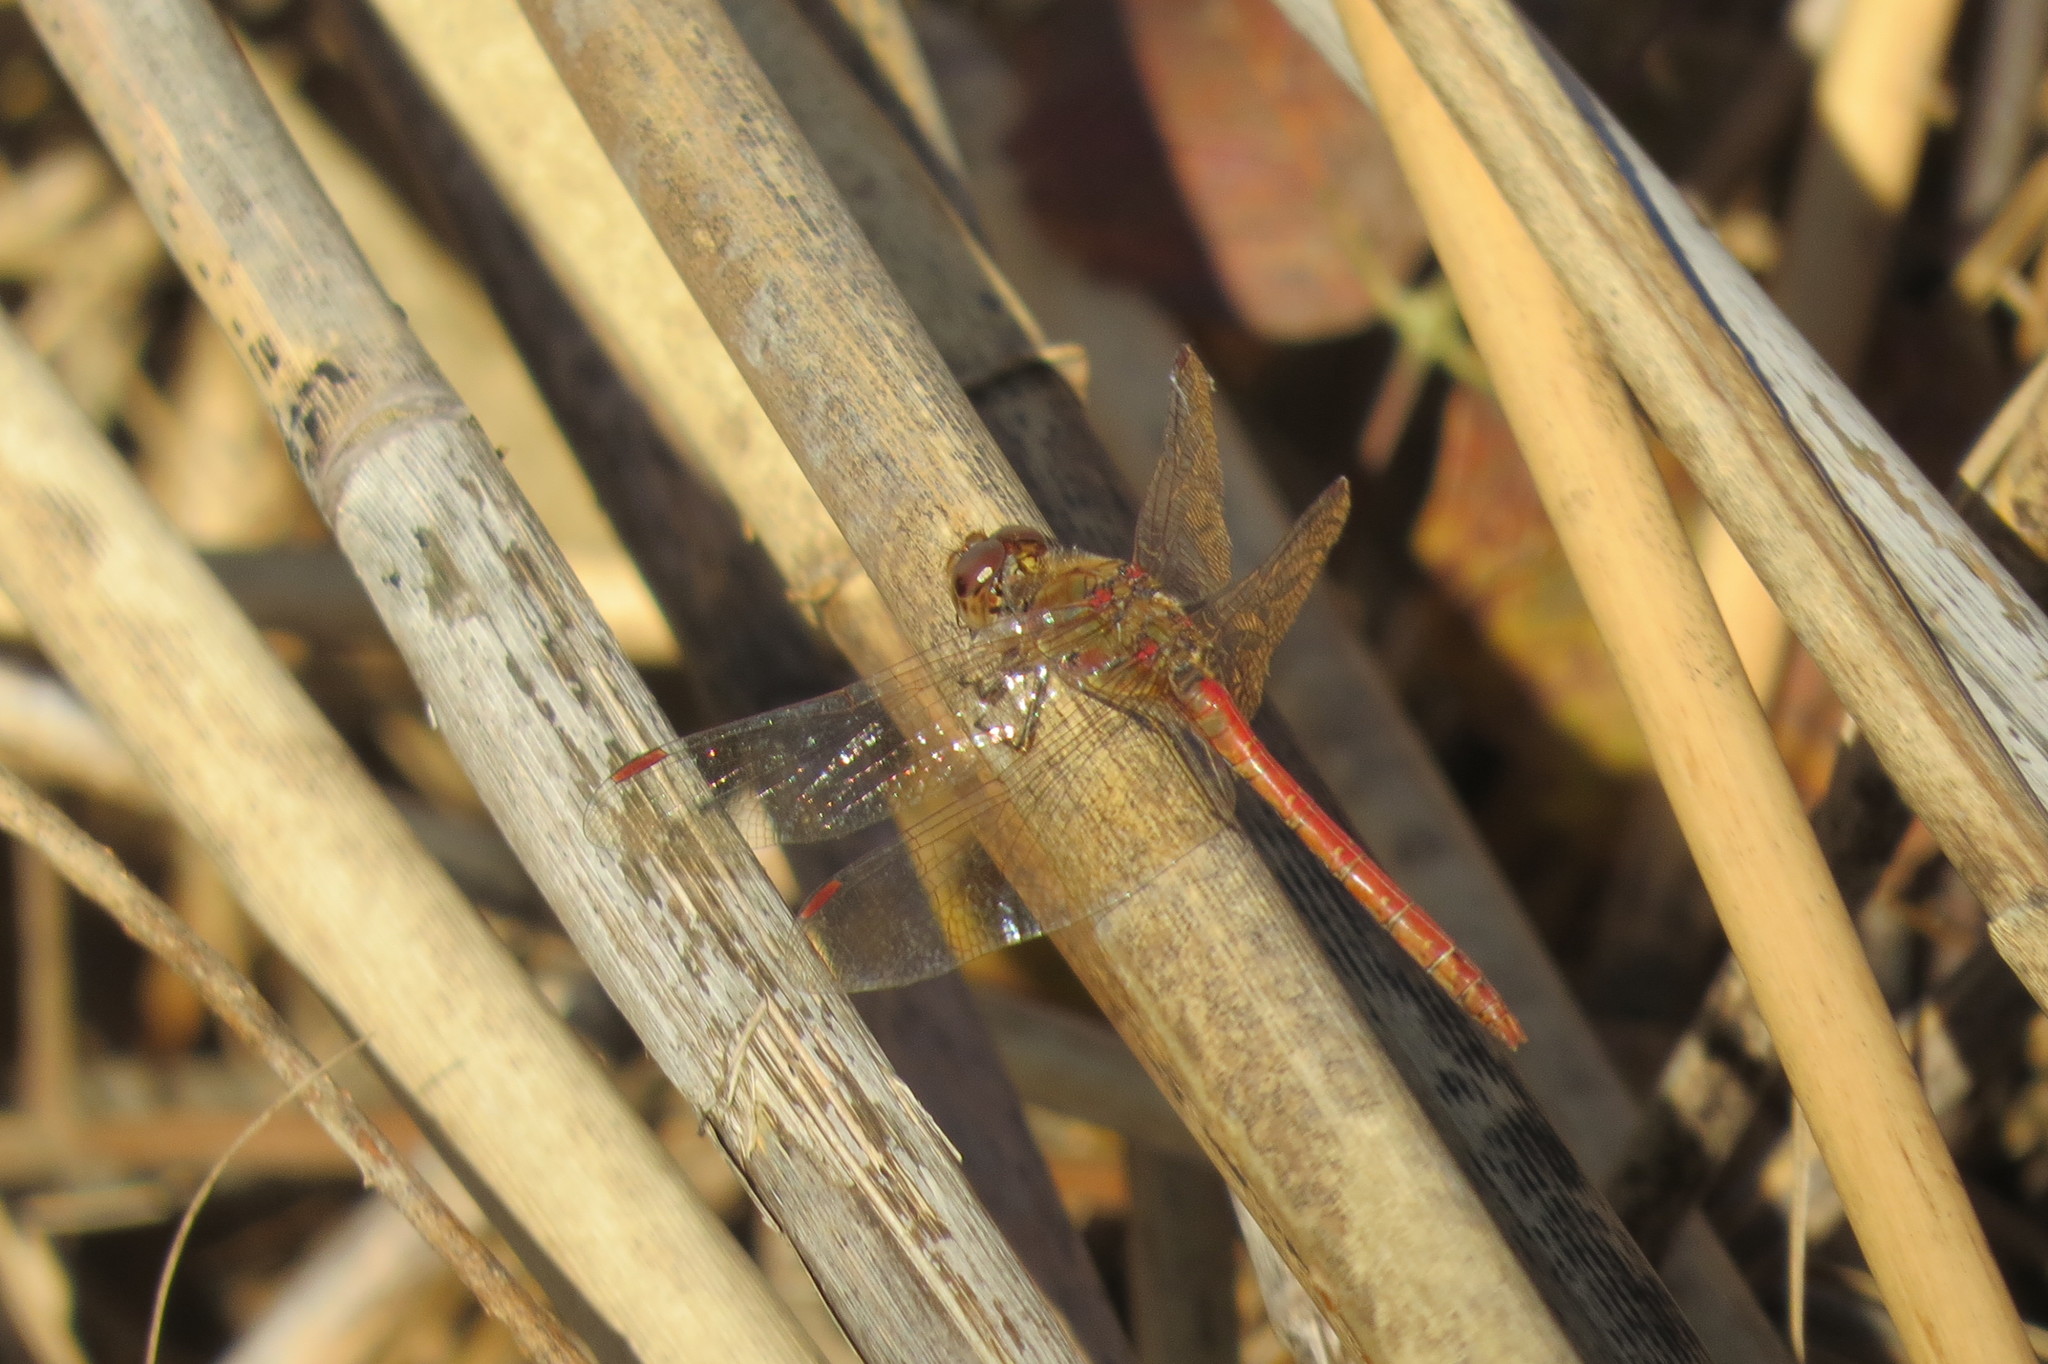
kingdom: Animalia
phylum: Arthropoda
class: Insecta
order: Odonata
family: Libellulidae
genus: Sympetrum
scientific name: Sympetrum striolatum
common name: Common darter
